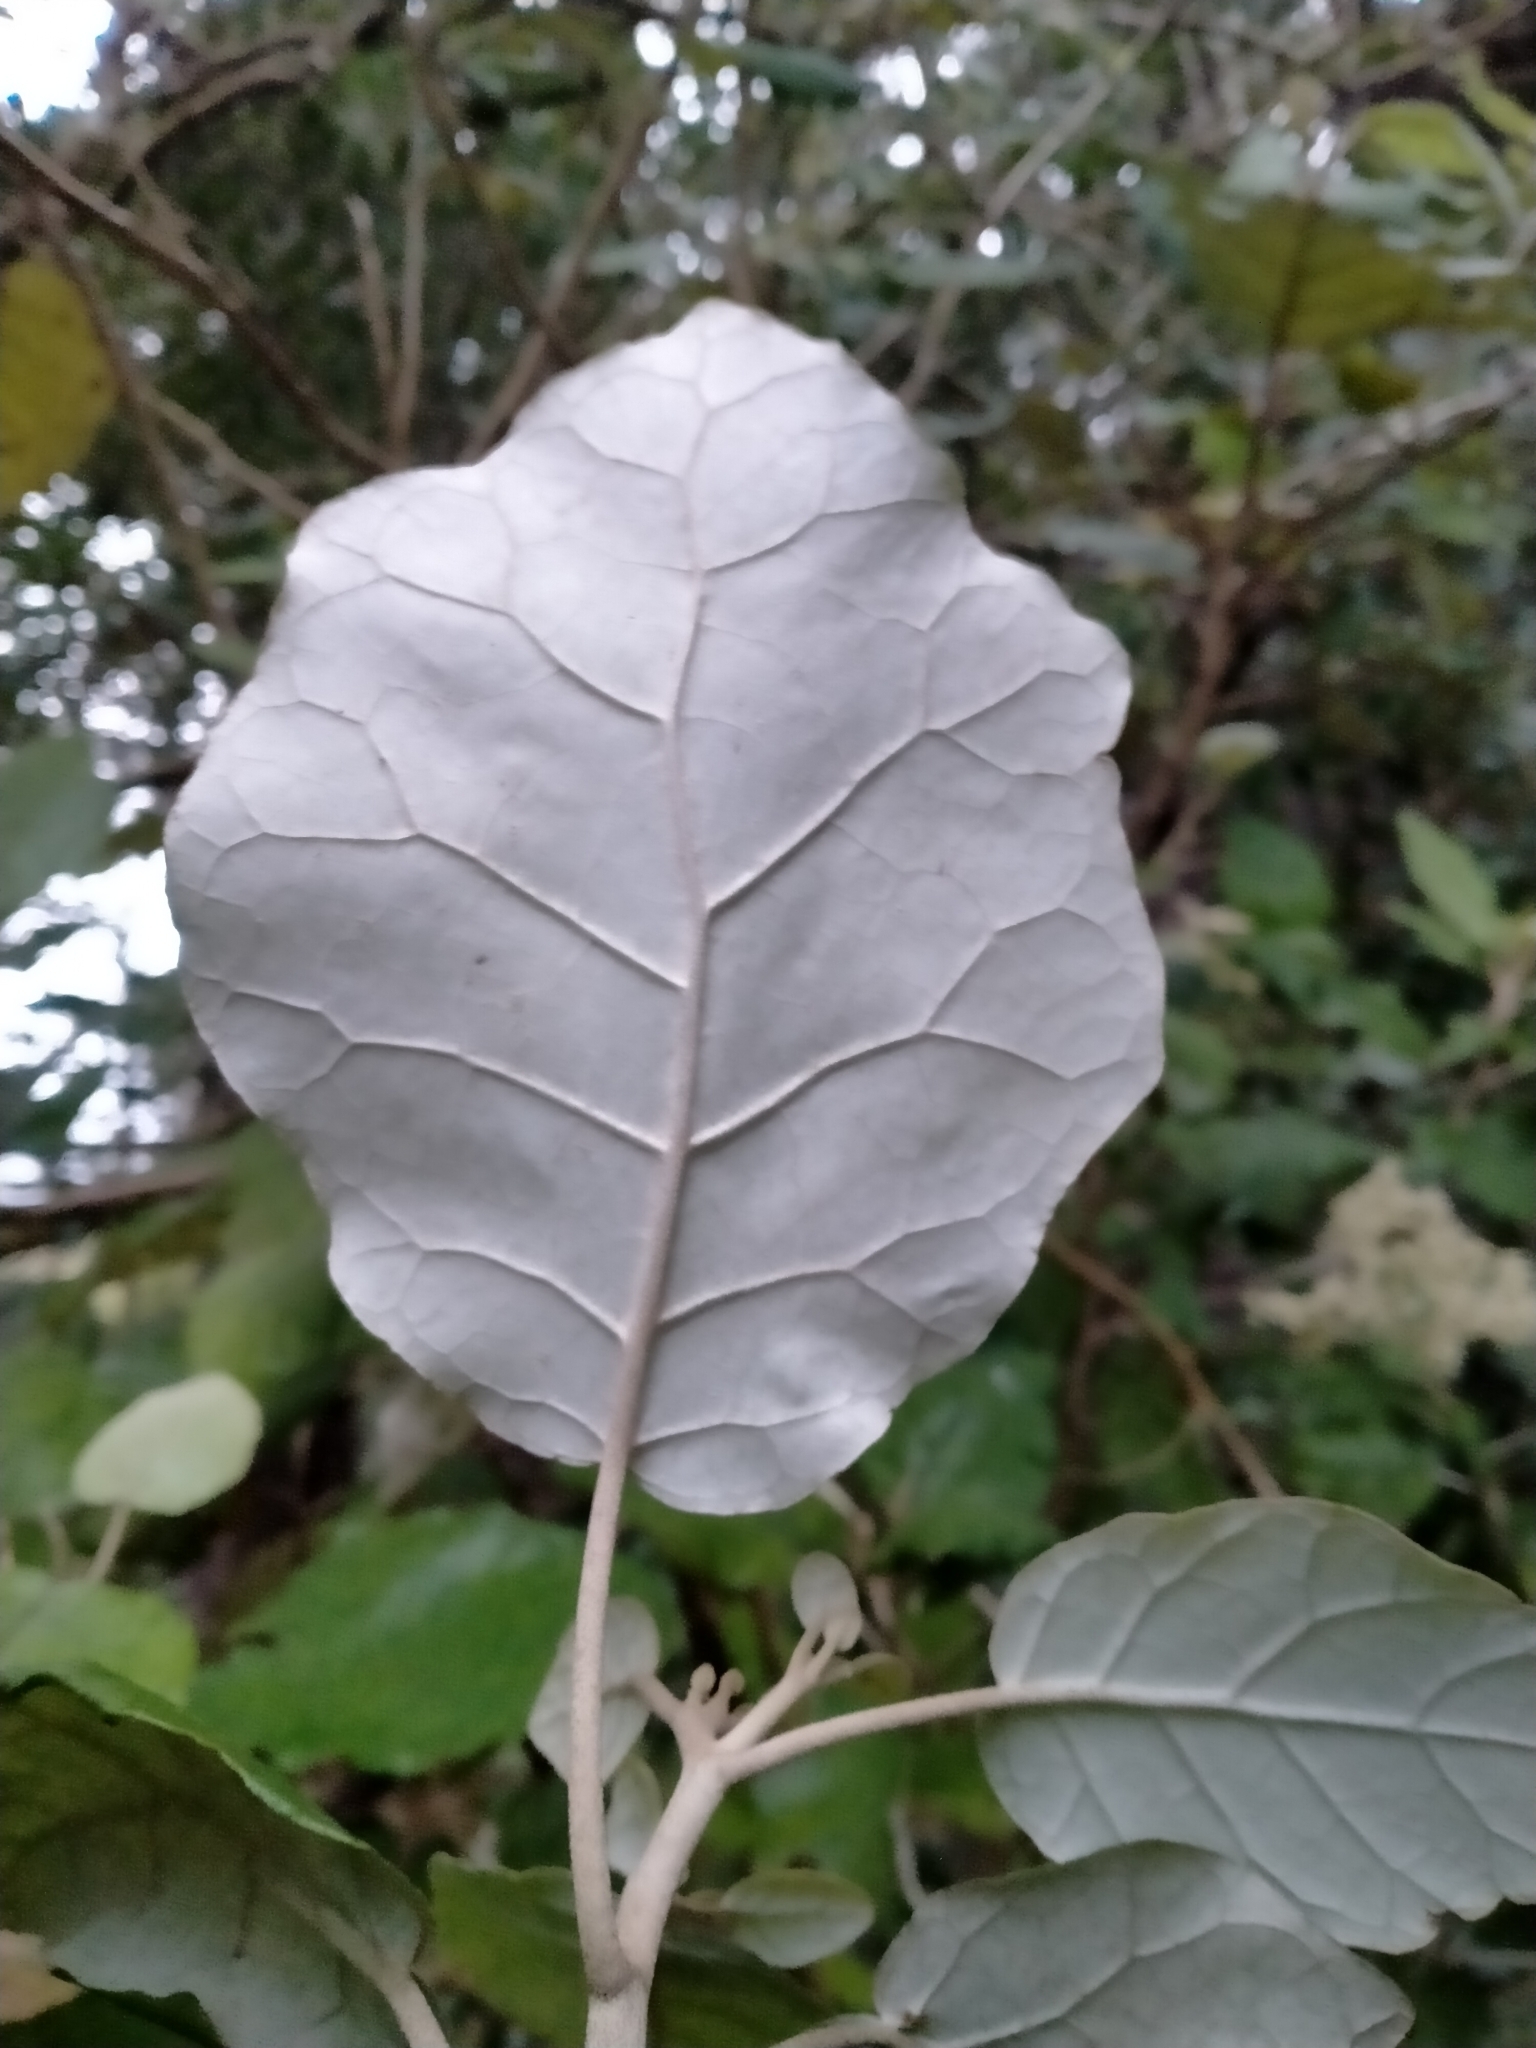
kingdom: Plantae
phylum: Tracheophyta
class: Magnoliopsida
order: Asterales
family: Asteraceae
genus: Brachyglottis
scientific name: Brachyglottis repanda
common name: Hedge ragwort
